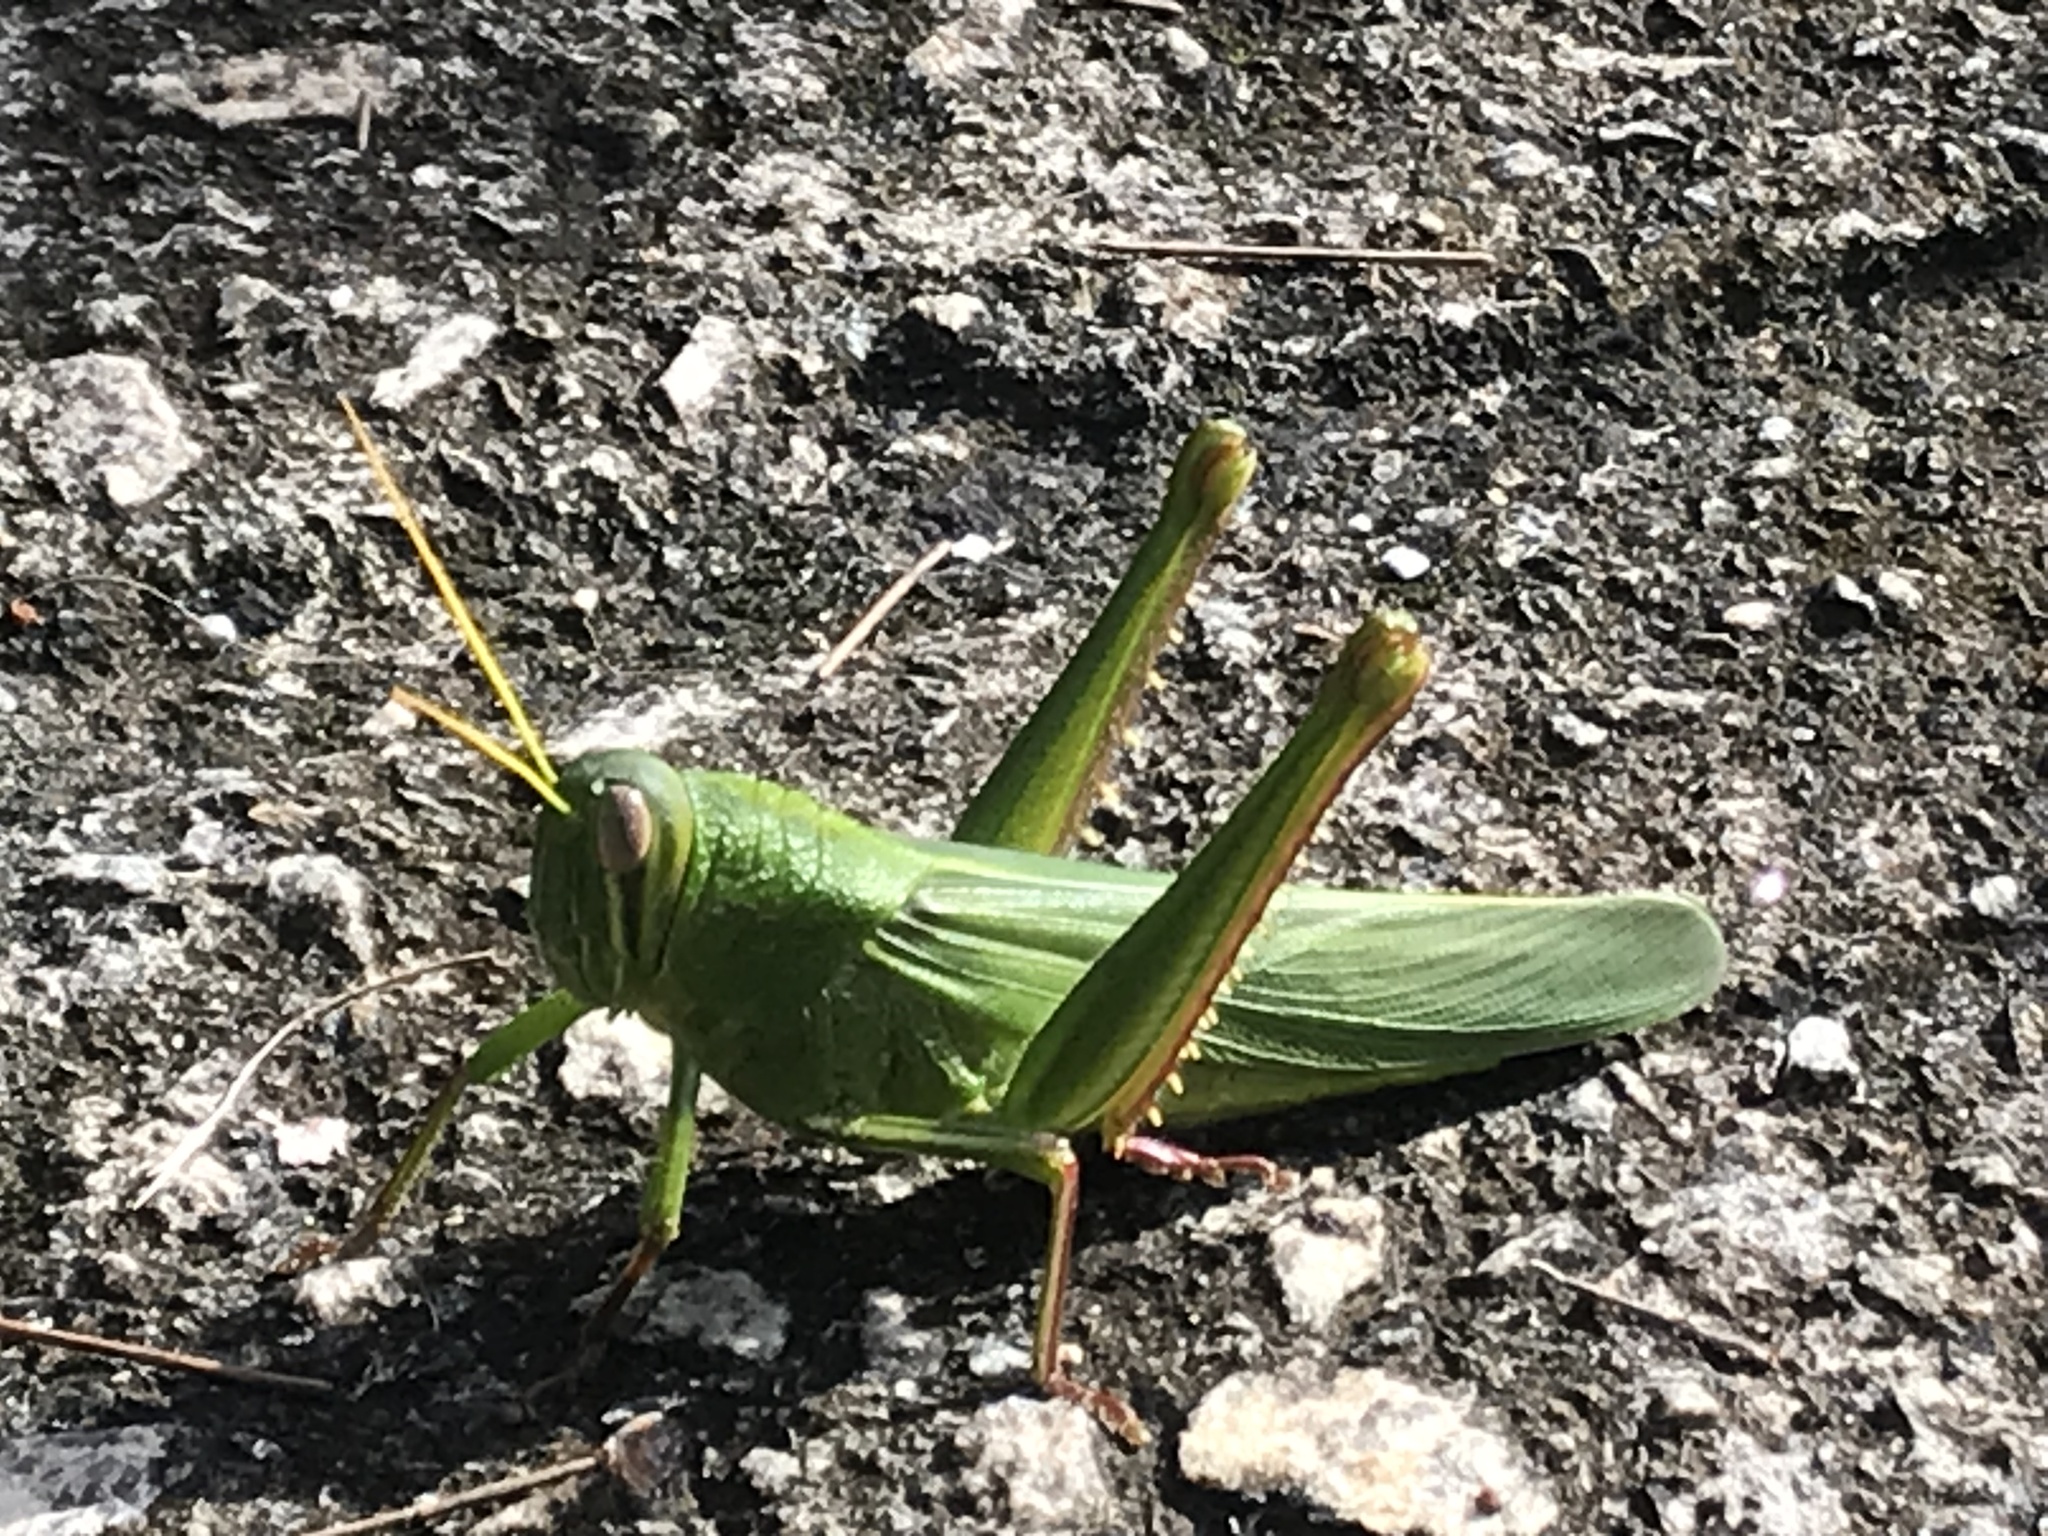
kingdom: Animalia
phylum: Arthropoda
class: Insecta
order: Orthoptera
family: Acrididae
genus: Chondracris
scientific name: Chondracris rosea
